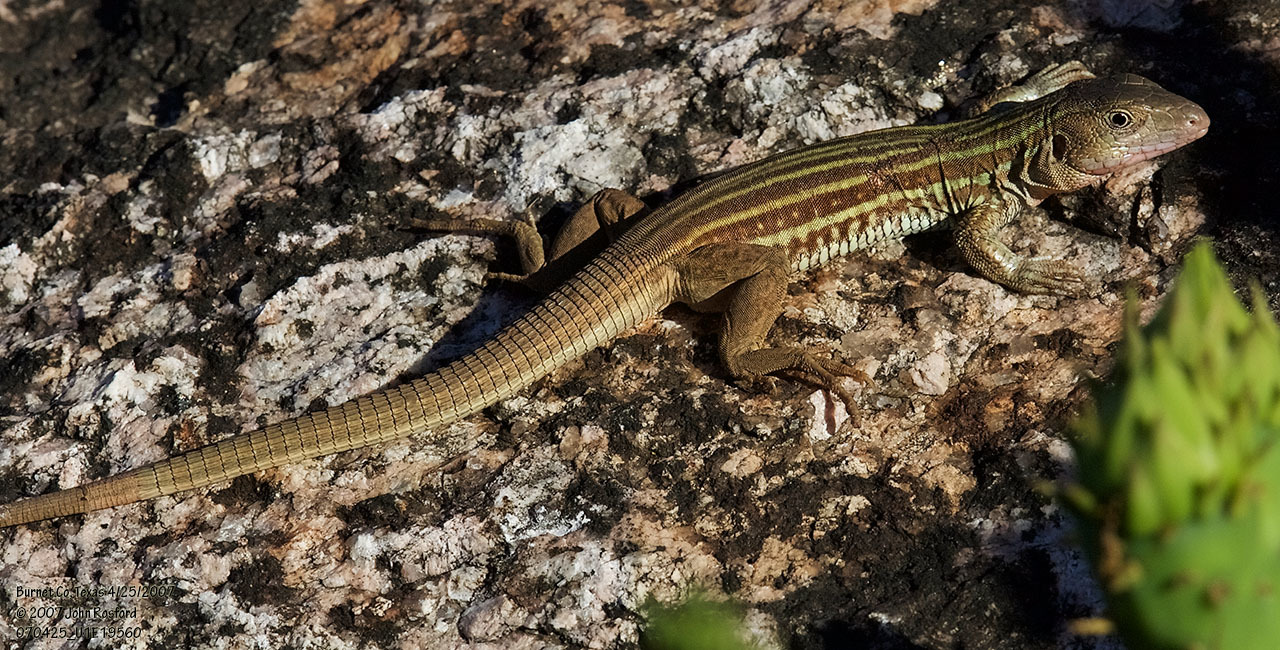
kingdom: Animalia
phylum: Chordata
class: Squamata
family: Teiidae
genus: Aspidoscelis
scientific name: Aspidoscelis gularis
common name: Eastern spotted whiptail
